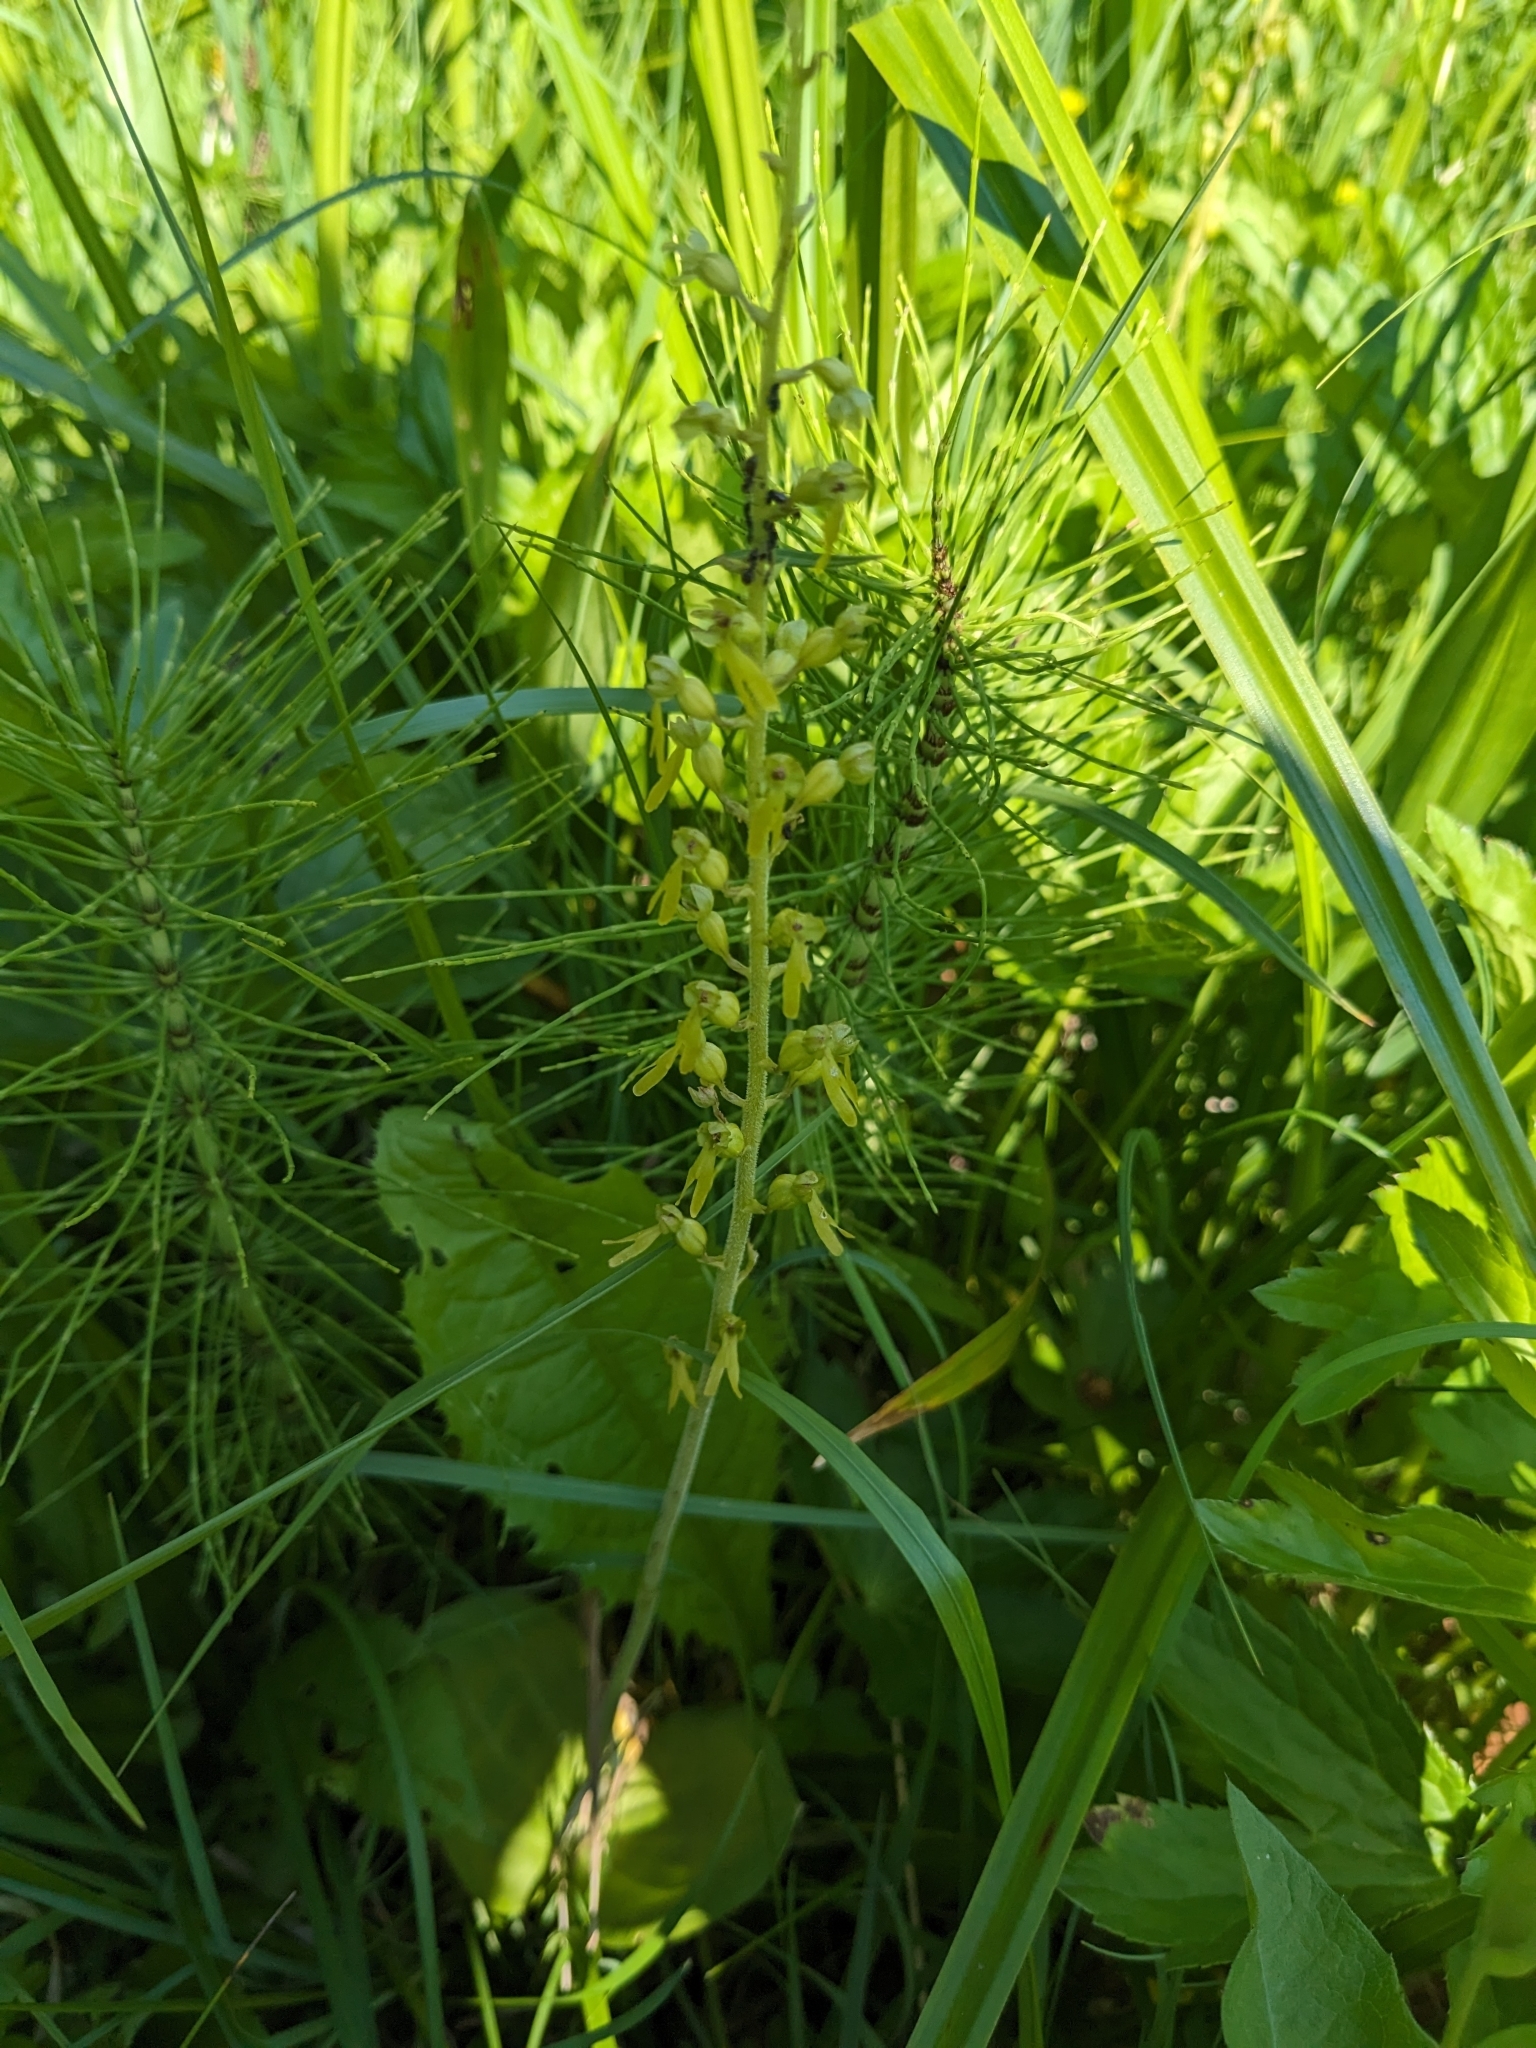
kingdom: Plantae
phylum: Tracheophyta
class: Liliopsida
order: Asparagales
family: Orchidaceae
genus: Neottia
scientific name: Neottia ovata
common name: Common twayblade
